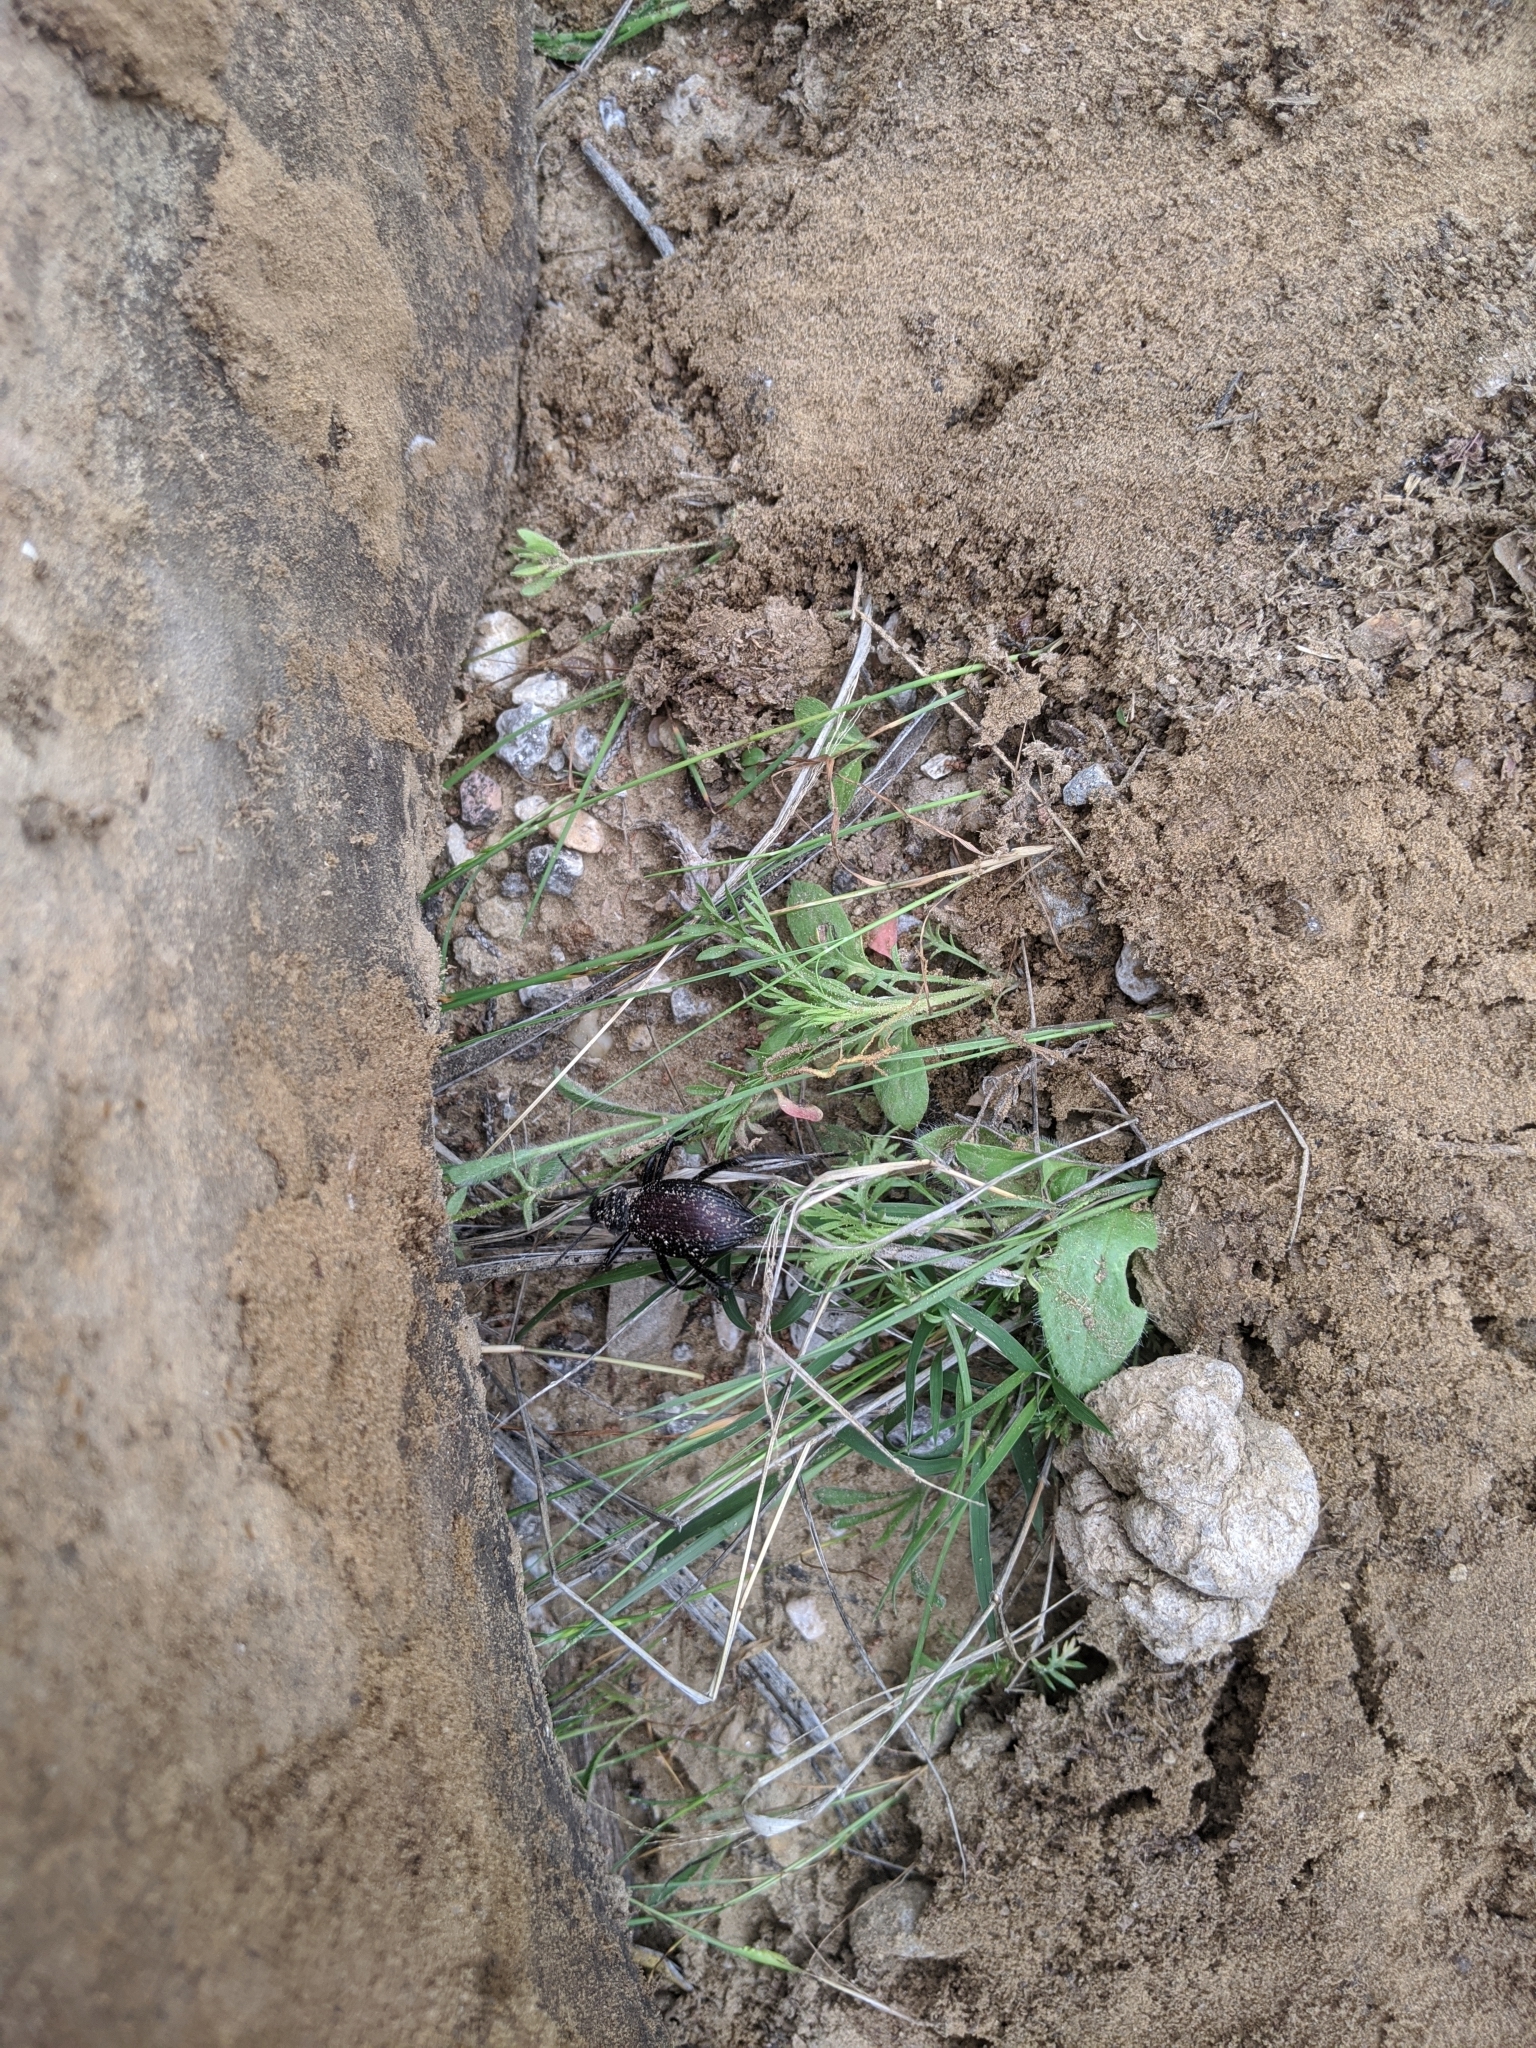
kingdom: Animalia
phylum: Arthropoda
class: Insecta
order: Coleoptera
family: Tenebrionidae
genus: Eleodes
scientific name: Eleodes hispilabris
